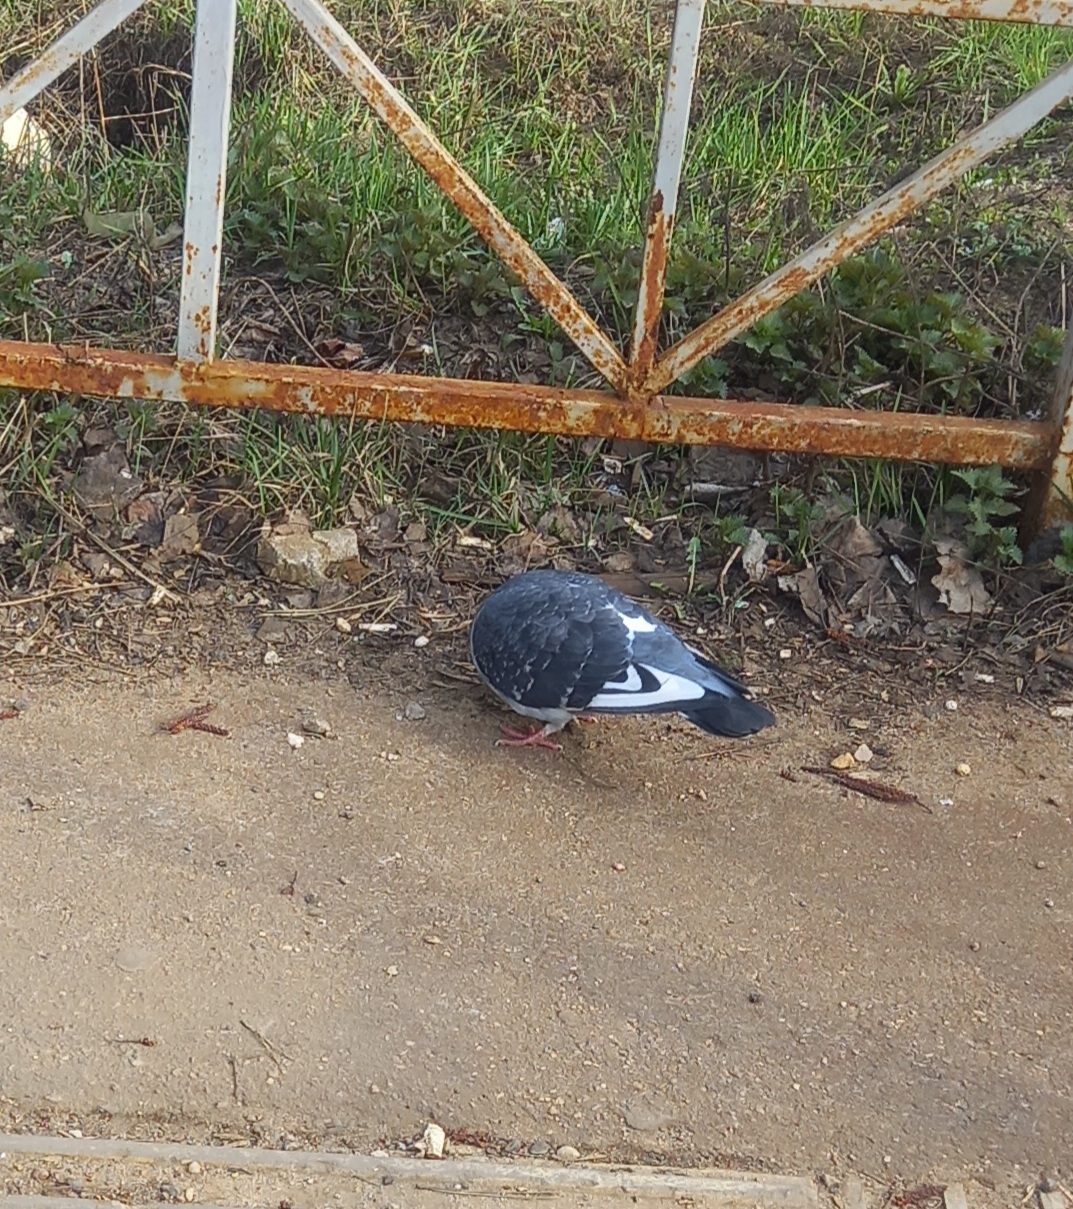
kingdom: Animalia
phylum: Chordata
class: Aves
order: Columbiformes
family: Columbidae
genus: Columba
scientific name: Columba livia
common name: Rock pigeon
